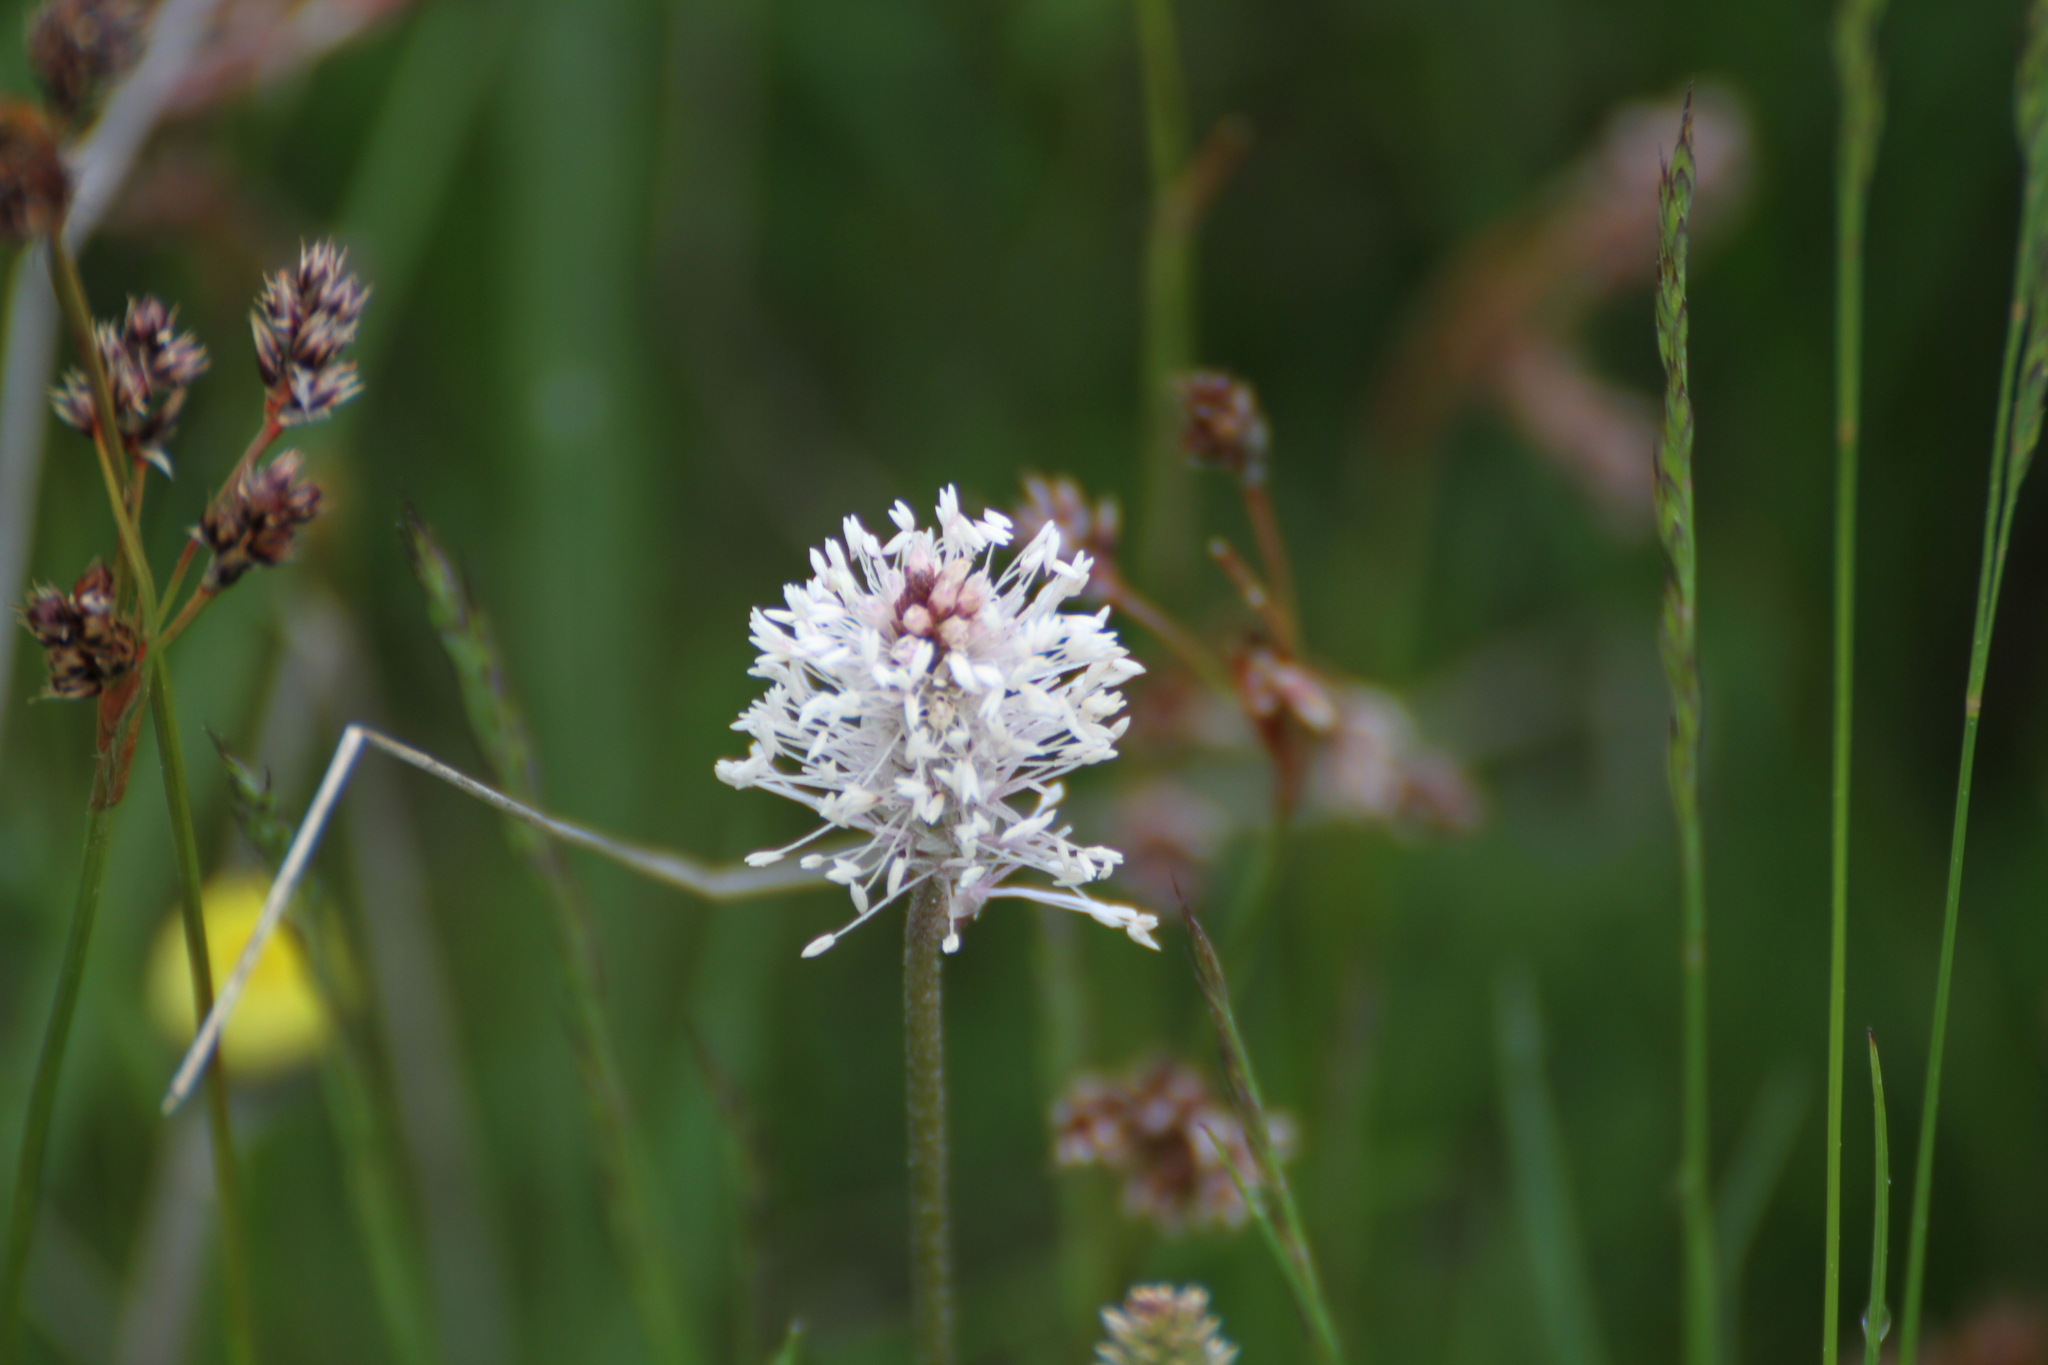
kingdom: Plantae
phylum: Tracheophyta
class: Magnoliopsida
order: Lamiales
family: Plantaginaceae
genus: Plantago
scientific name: Plantago media
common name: Hoary plantain
